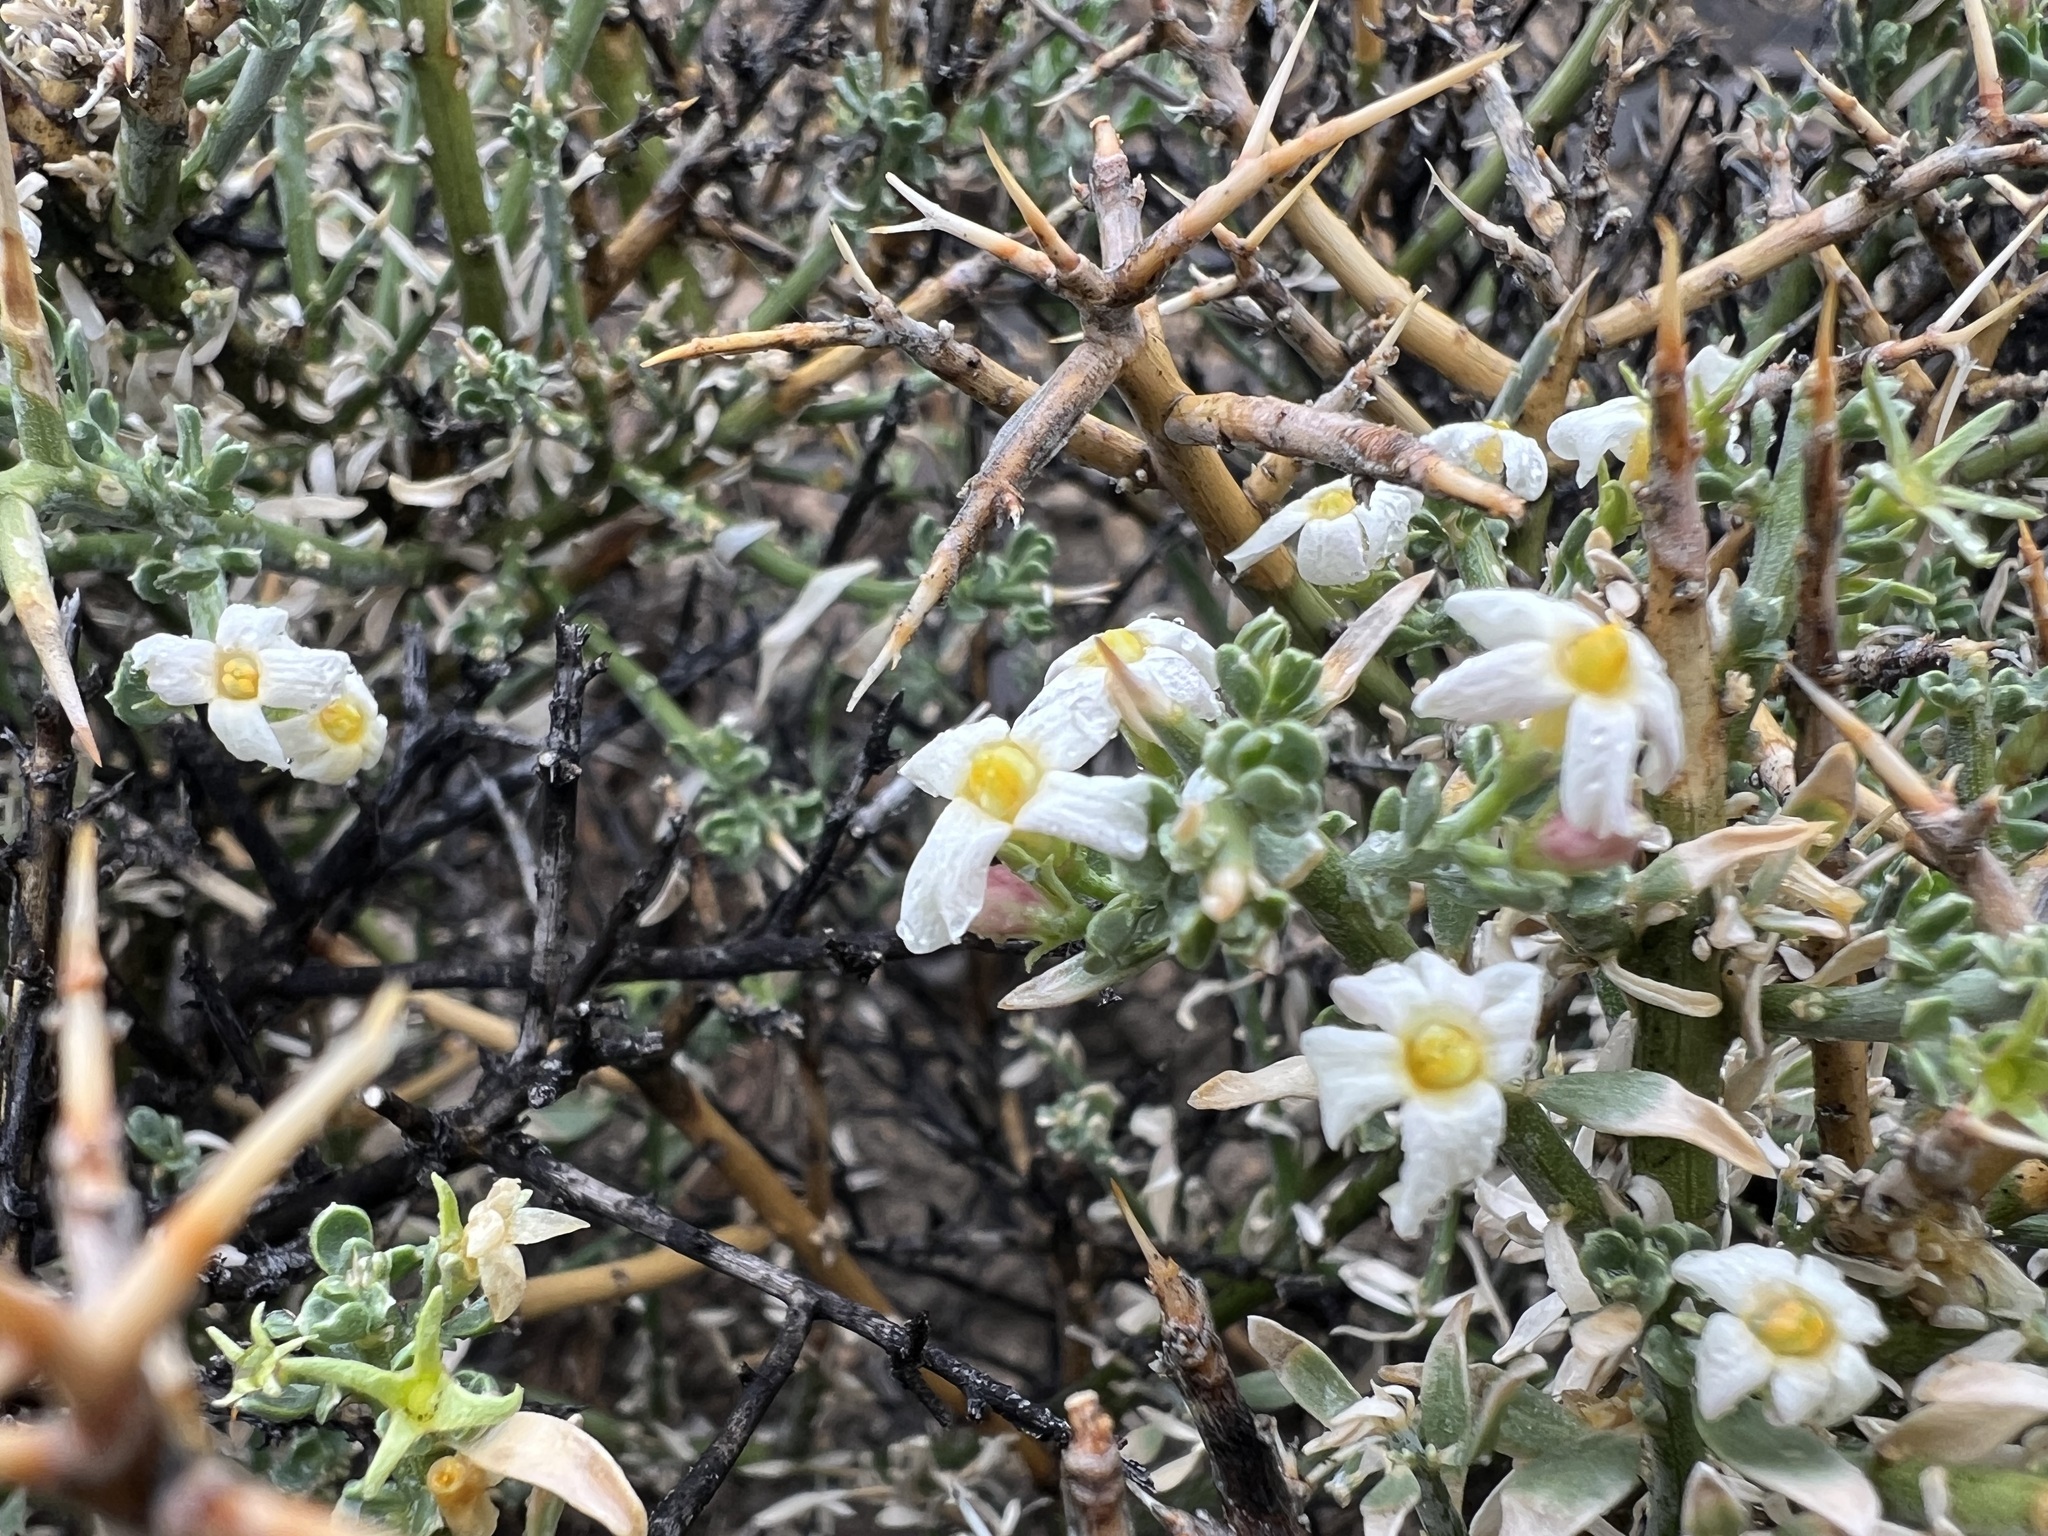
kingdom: Plantae
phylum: Tracheophyta
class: Magnoliopsida
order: Lamiales
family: Oleaceae
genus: Menodora
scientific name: Menodora spinescens
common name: Spiny menodora
